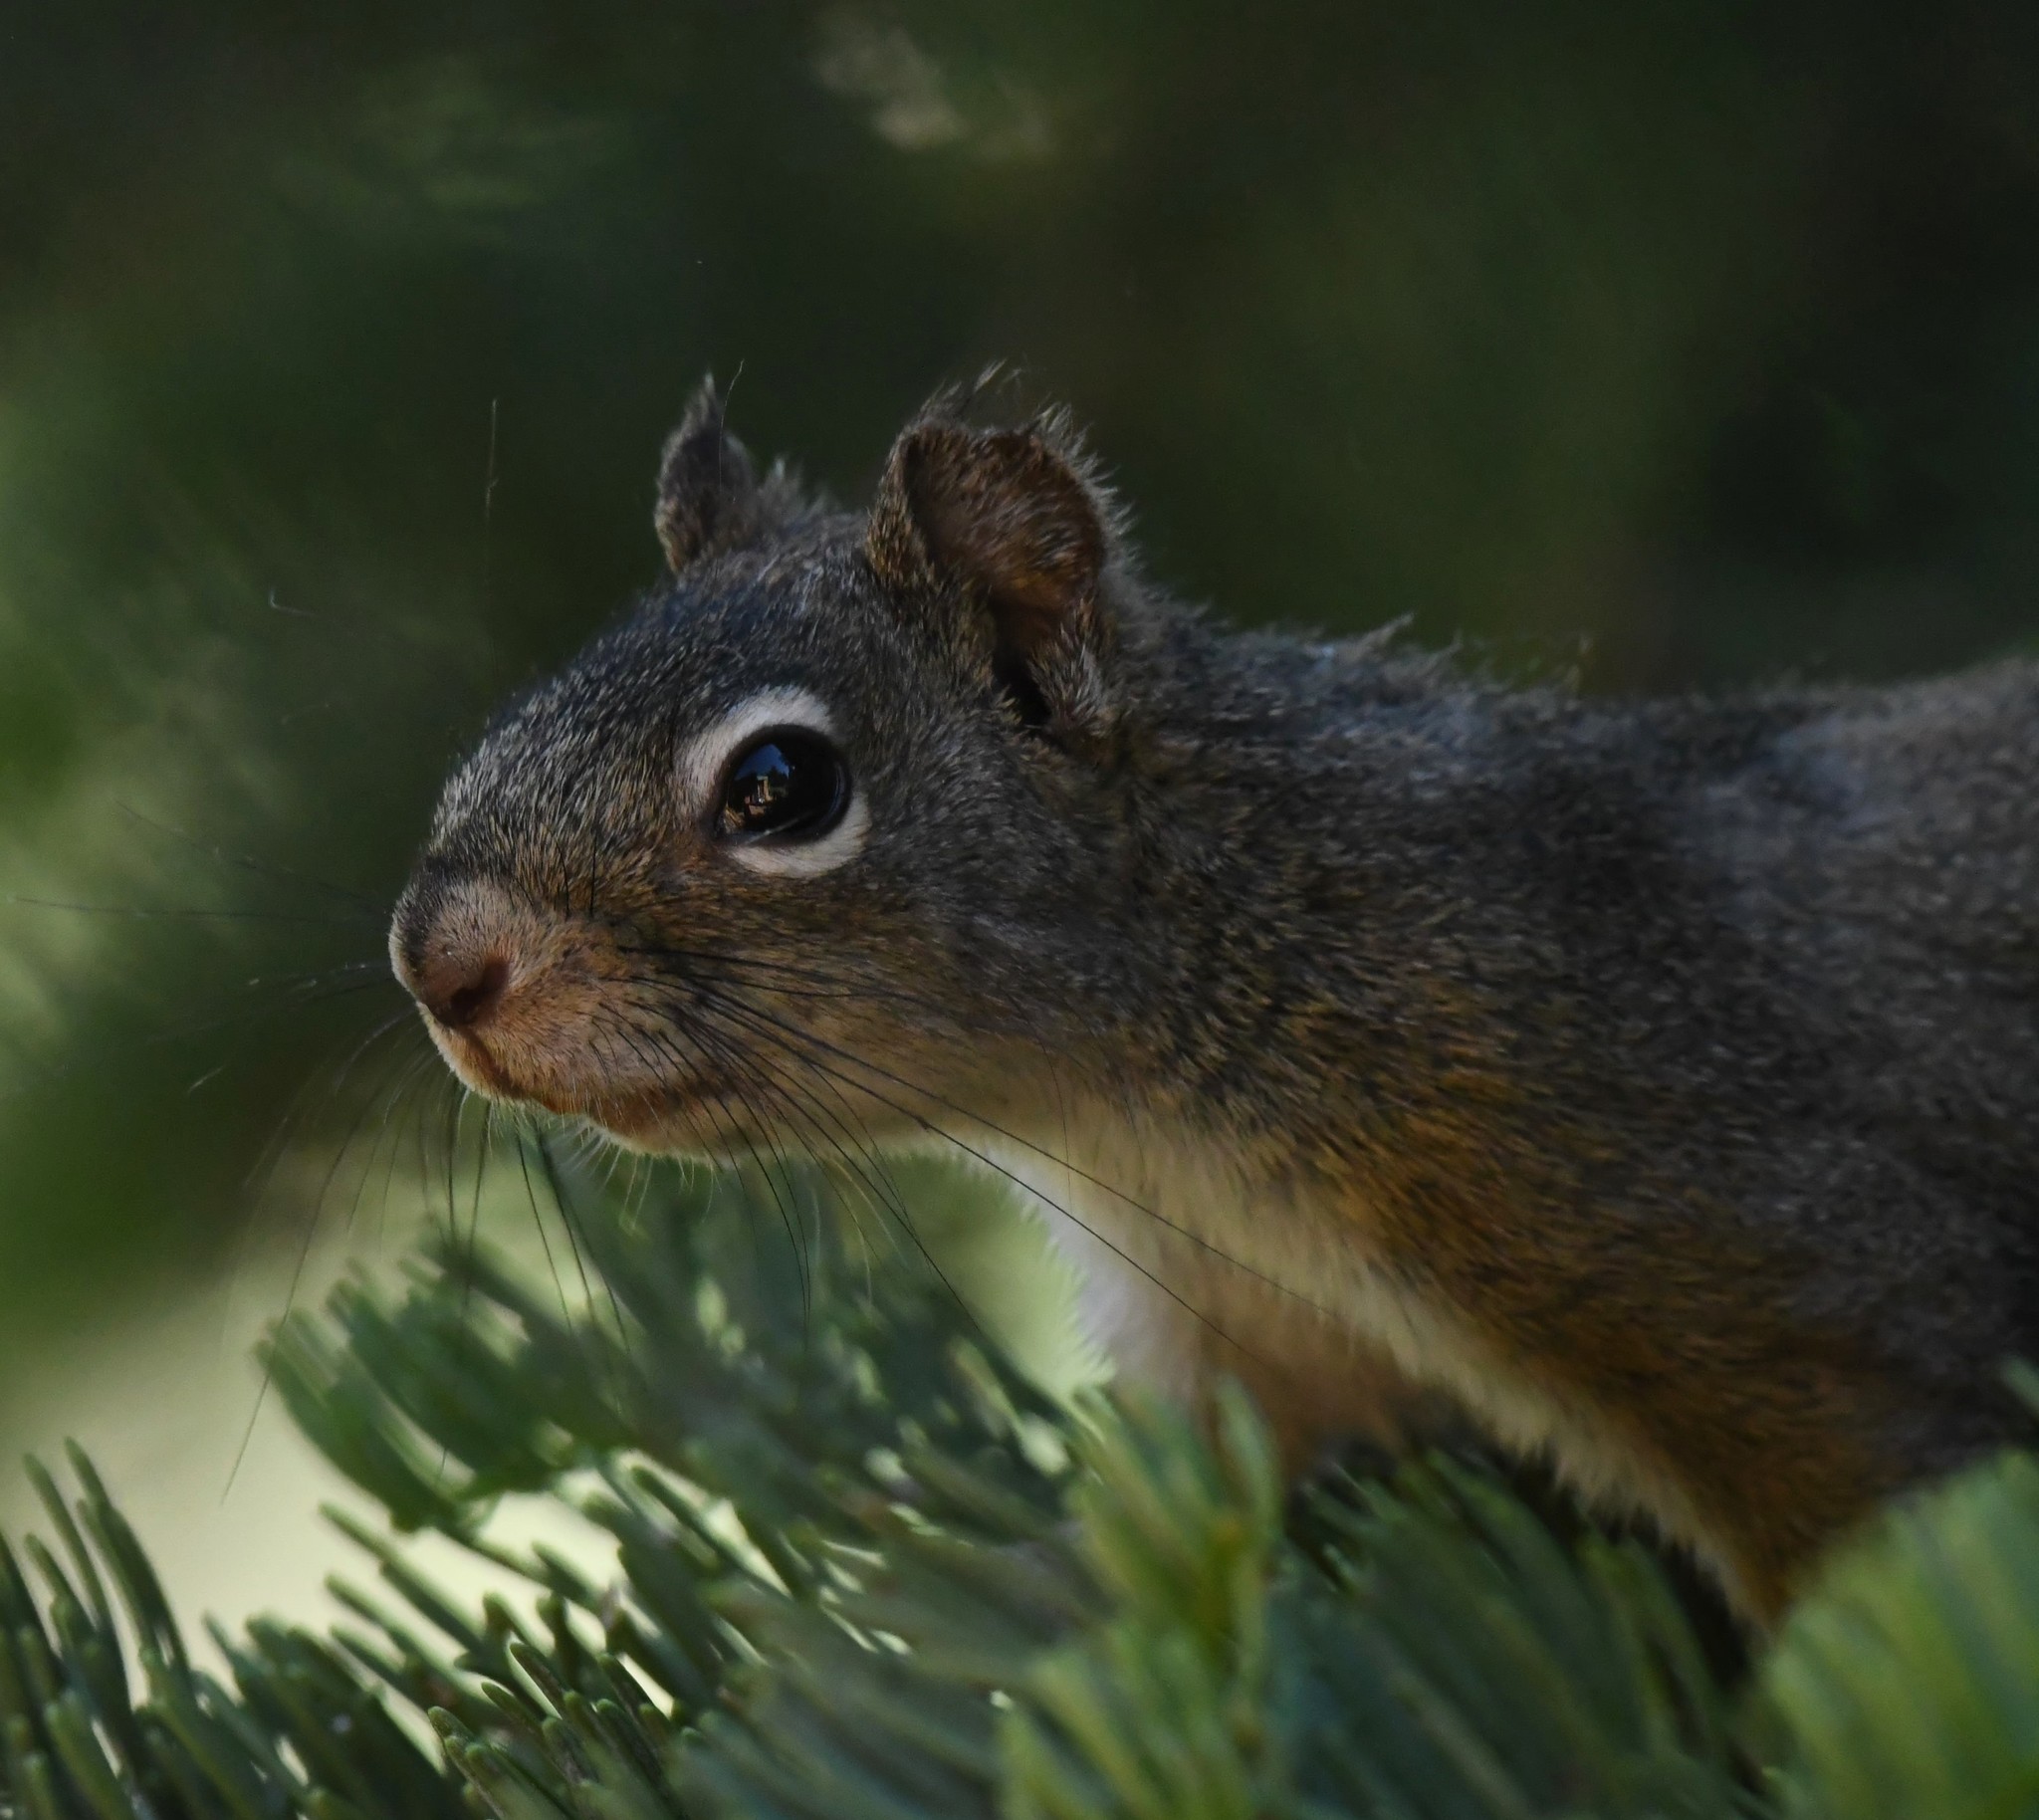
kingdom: Animalia
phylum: Chordata
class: Mammalia
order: Rodentia
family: Sciuridae
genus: Tamiasciurus
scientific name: Tamiasciurus hudsonicus
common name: Red squirrel
